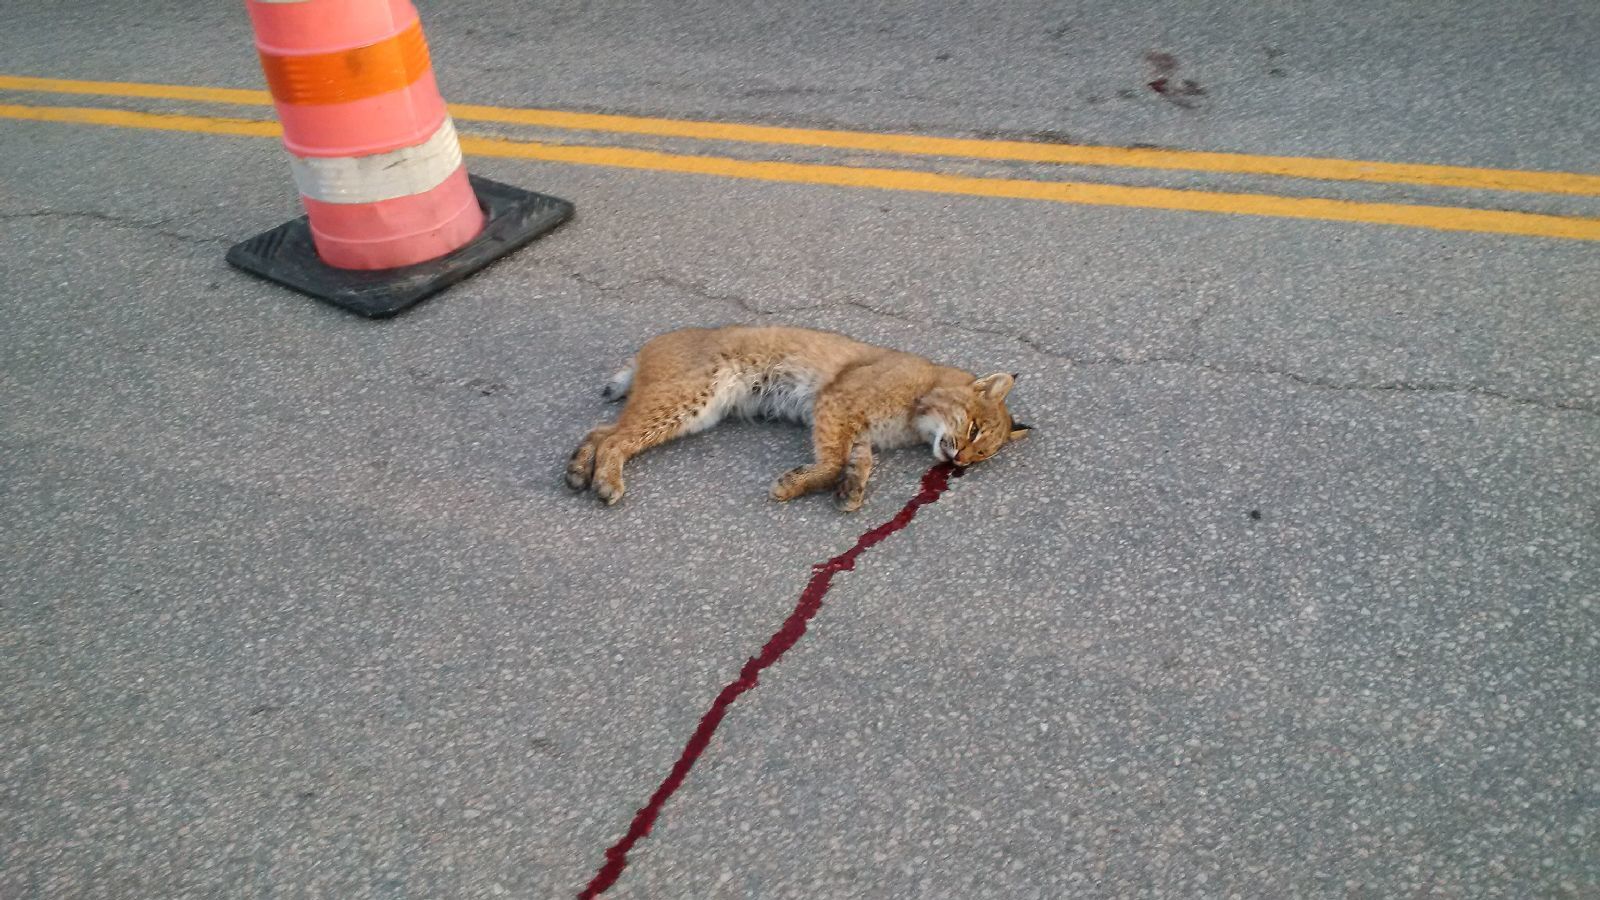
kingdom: Animalia
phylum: Chordata
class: Mammalia
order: Carnivora
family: Felidae
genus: Lynx
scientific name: Lynx rufus
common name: Bobcat
